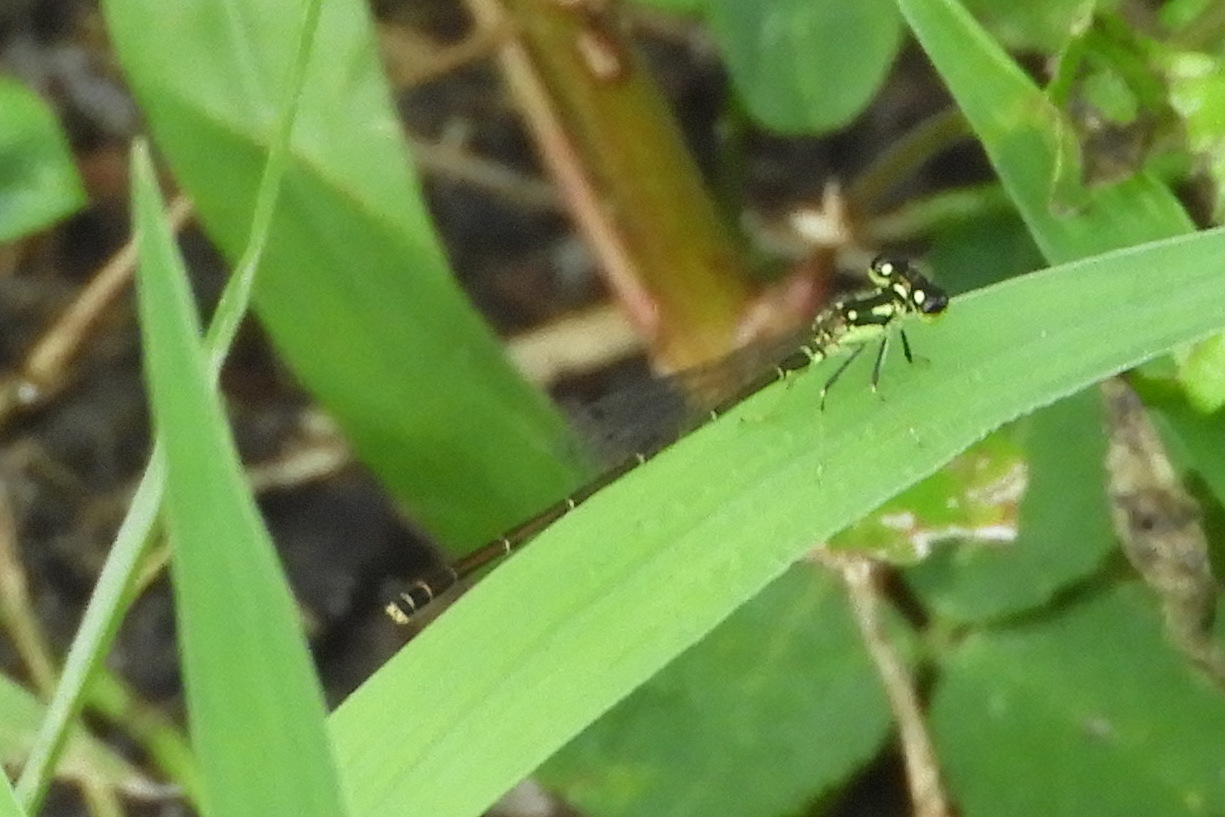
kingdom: Animalia
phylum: Arthropoda
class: Insecta
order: Odonata
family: Coenagrionidae
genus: Ischnura
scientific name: Ischnura posita
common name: Fragile forktail
